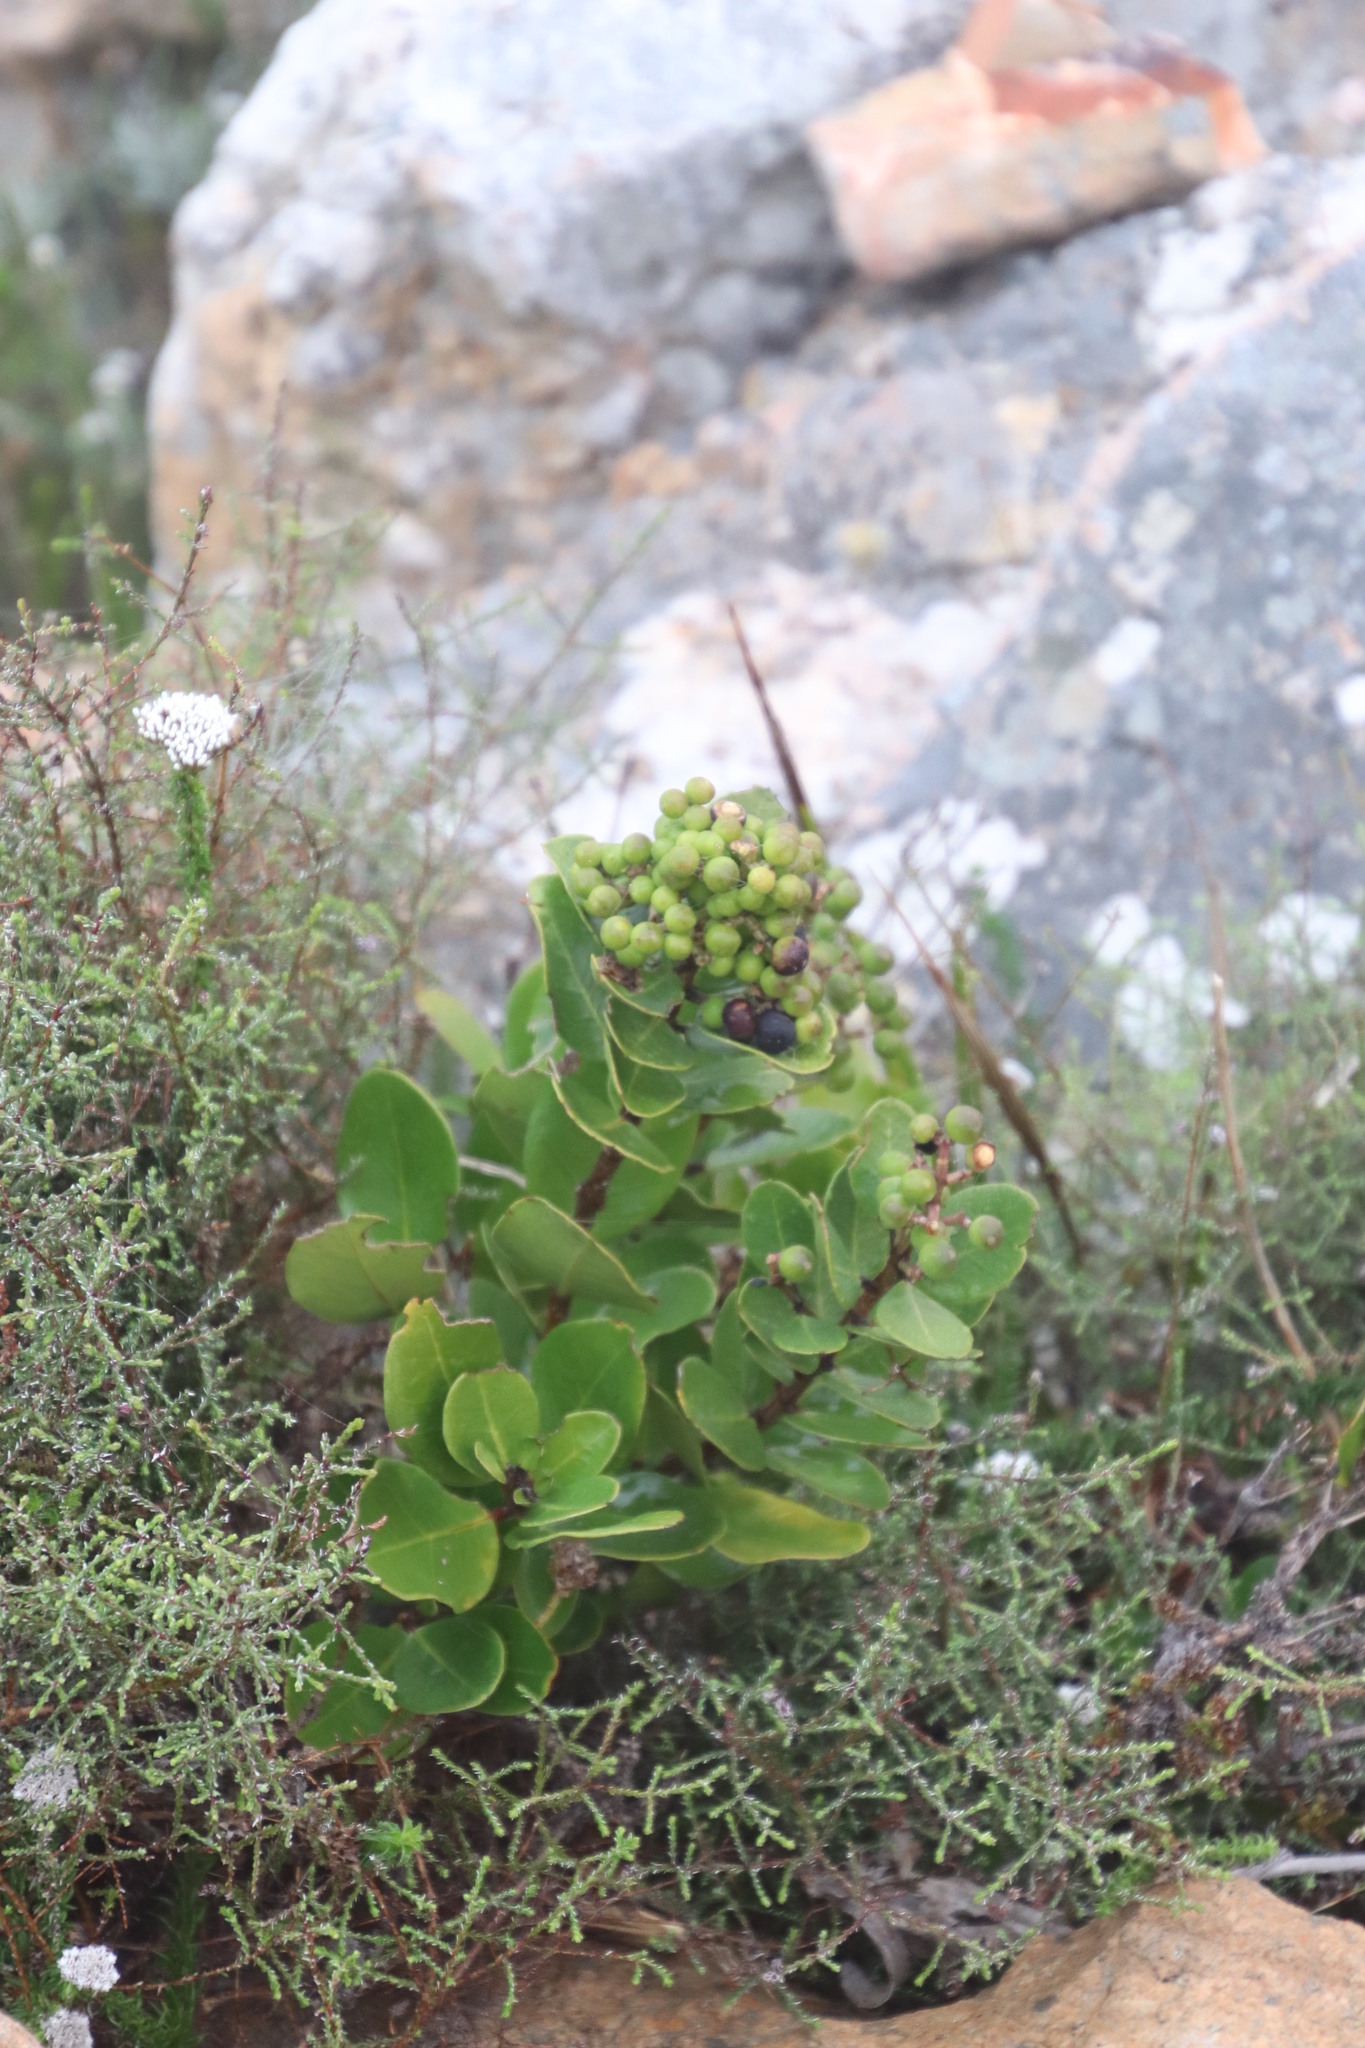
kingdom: Plantae
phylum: Tracheophyta
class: Magnoliopsida
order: Lamiales
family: Oleaceae
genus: Olea
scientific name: Olea capensis
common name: Black ironwood
